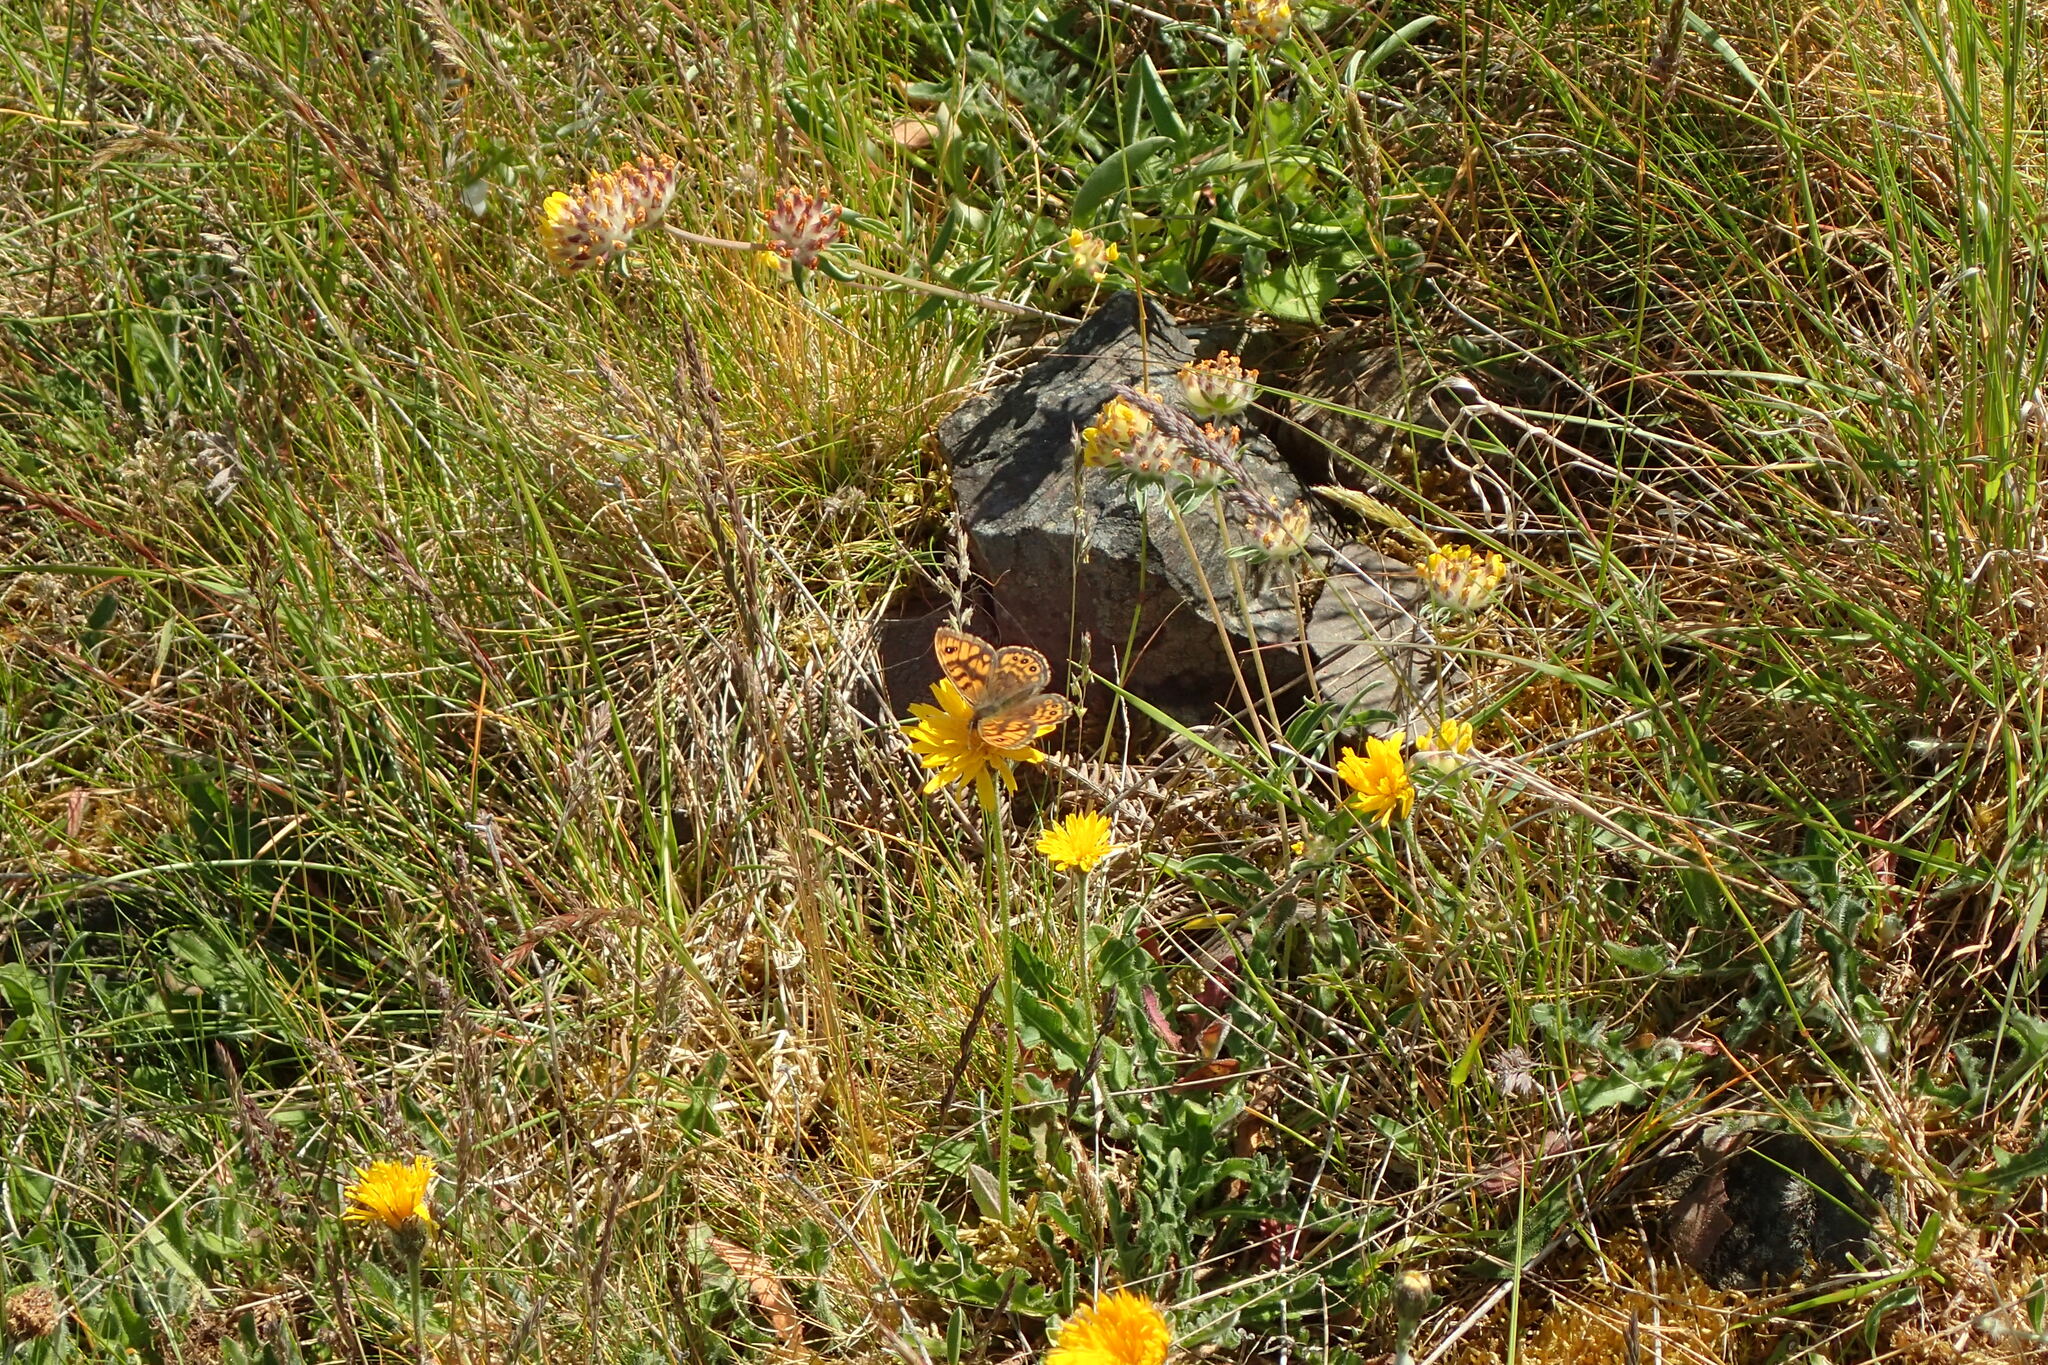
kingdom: Animalia
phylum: Arthropoda
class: Insecta
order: Lepidoptera
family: Nymphalidae
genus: Pararge
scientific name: Pararge Lasiommata megera
